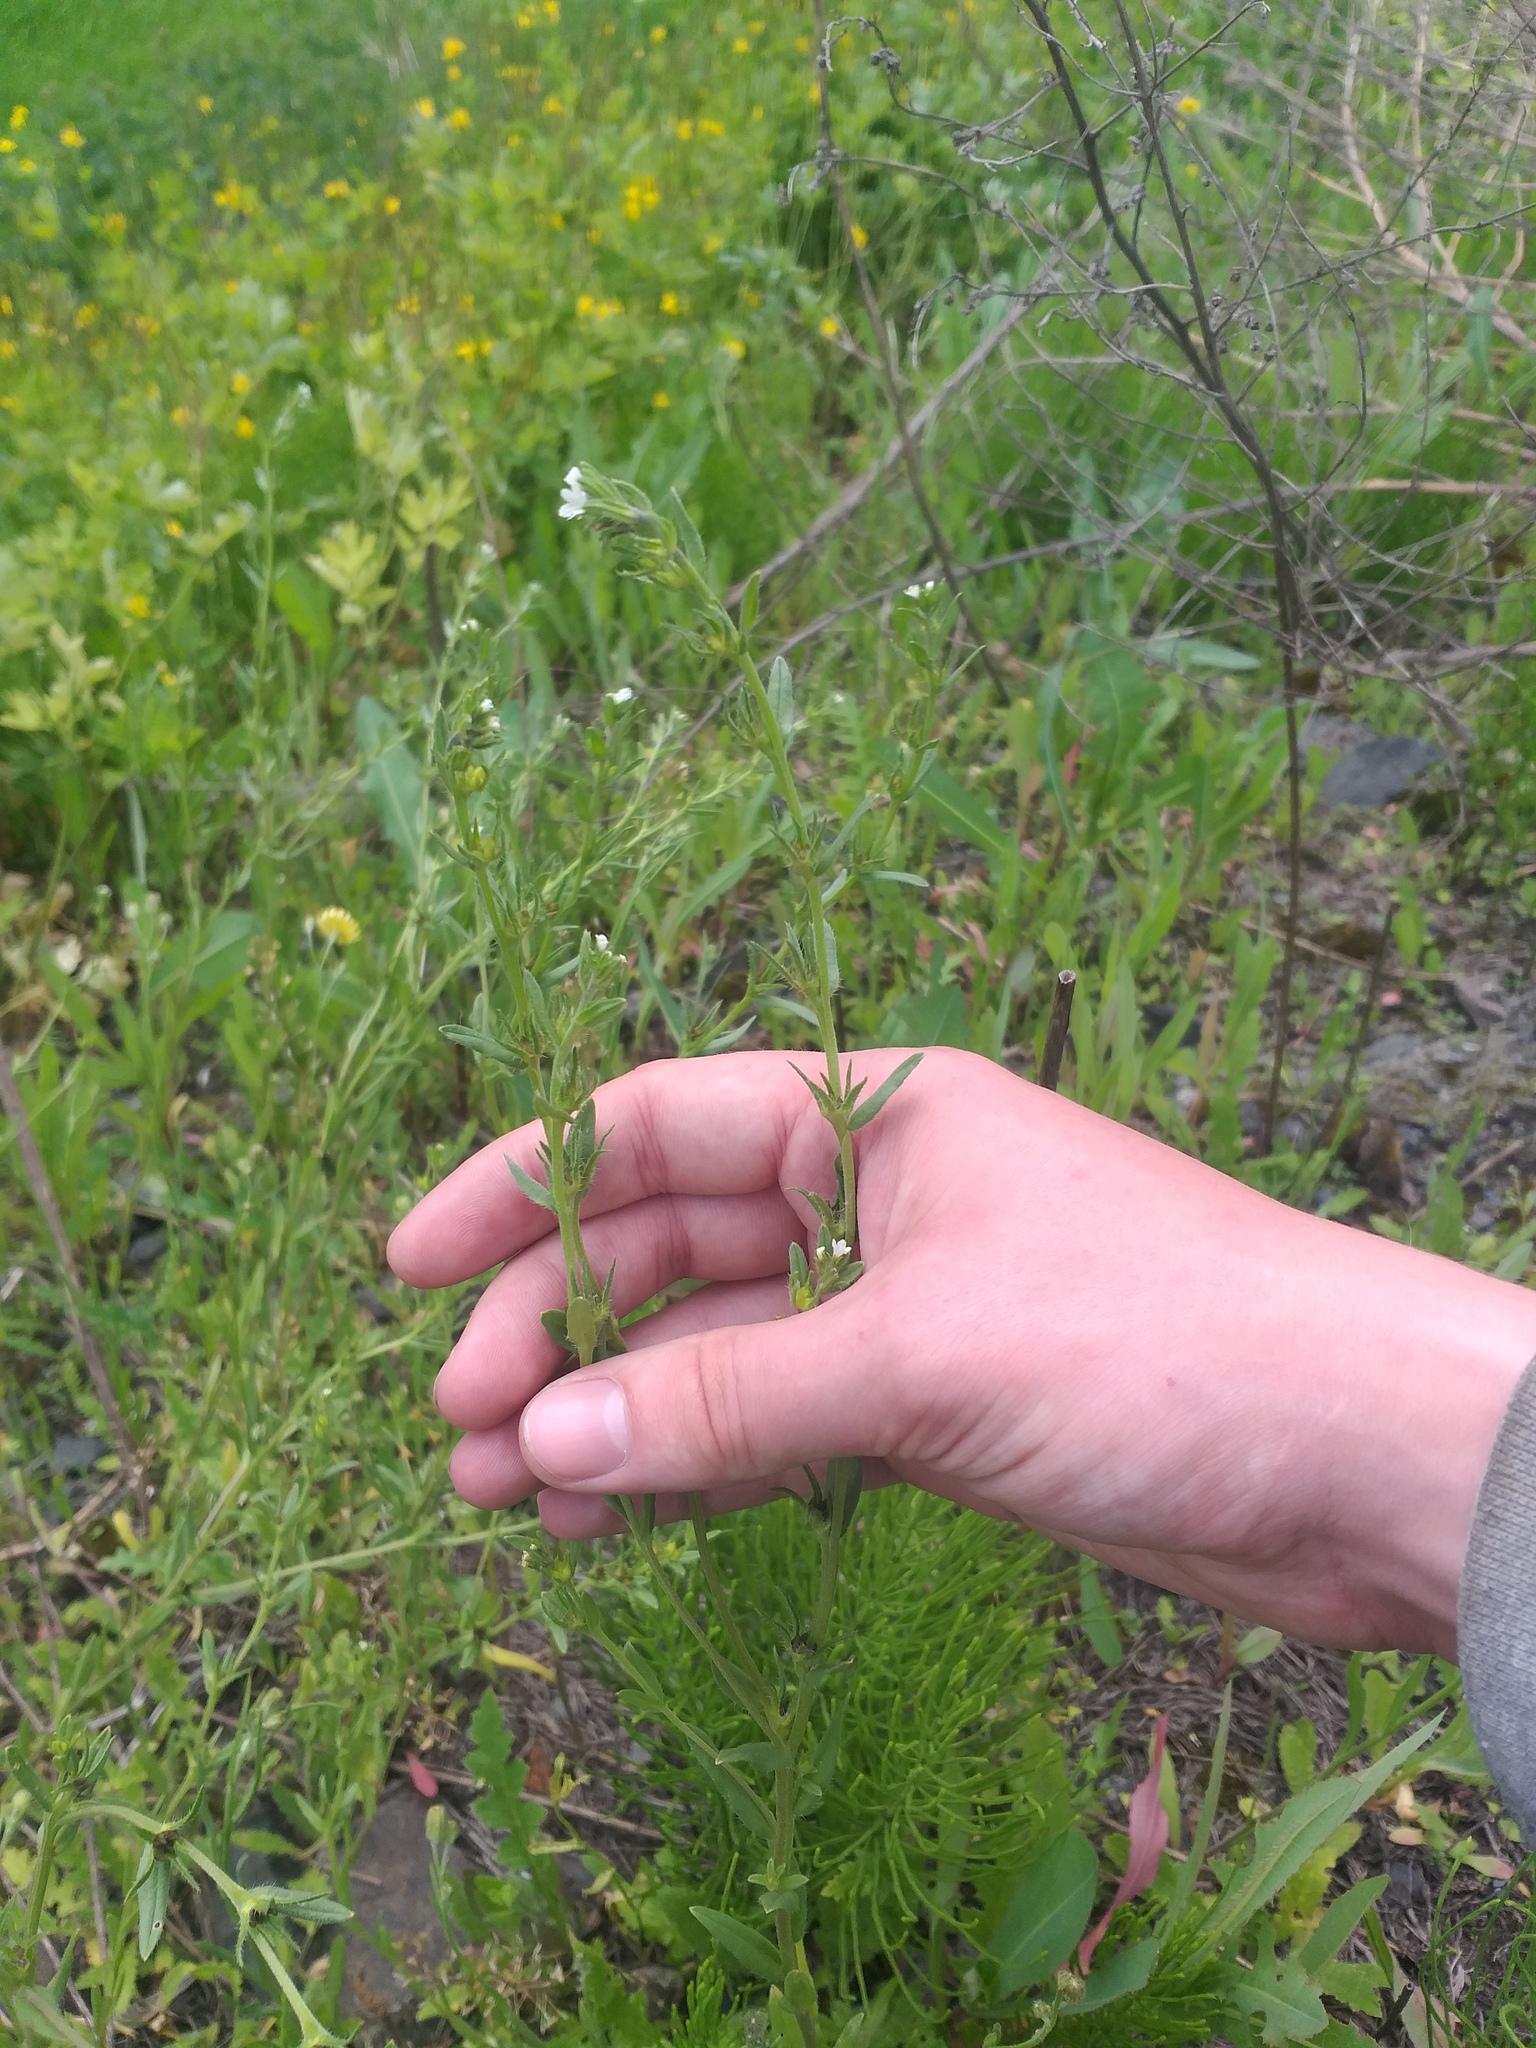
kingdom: Plantae
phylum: Tracheophyta
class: Magnoliopsida
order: Boraginales
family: Boraginaceae
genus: Buglossoides
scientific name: Buglossoides arvensis
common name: Corn gromwell
